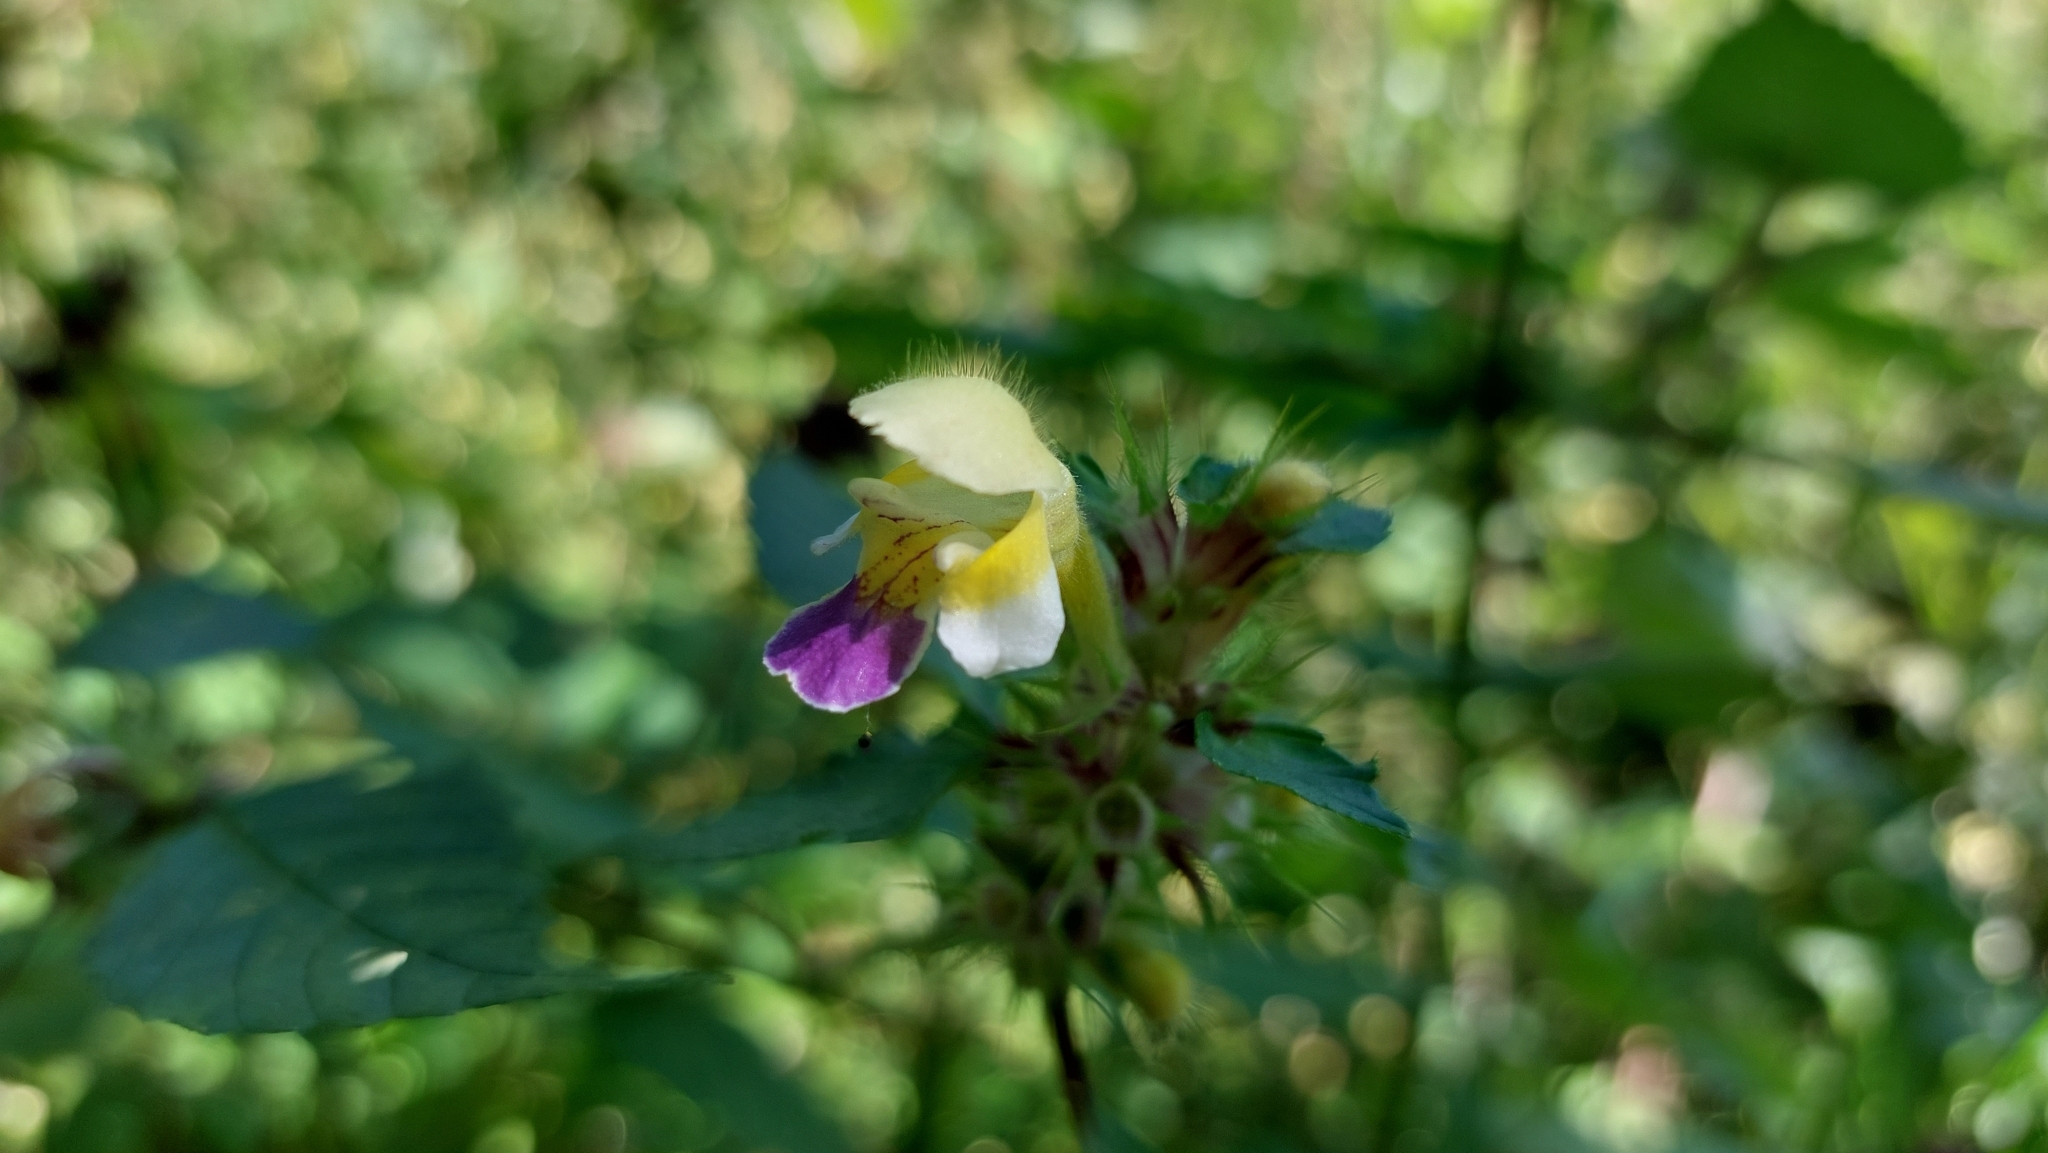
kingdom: Plantae
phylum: Tracheophyta
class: Magnoliopsida
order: Lamiales
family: Lamiaceae
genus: Galeopsis
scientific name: Galeopsis speciosa
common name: Large-flowered hemp-nettle
